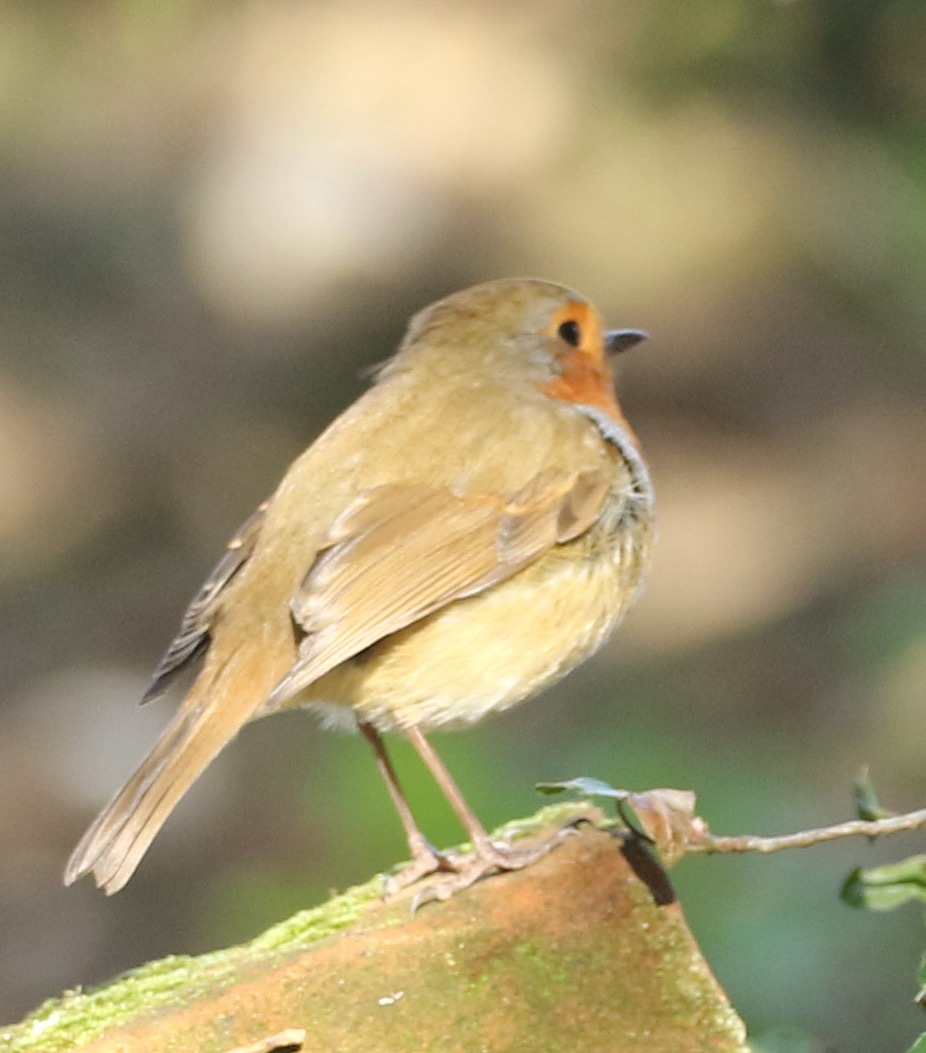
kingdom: Animalia
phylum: Chordata
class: Aves
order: Passeriformes
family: Muscicapidae
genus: Erithacus
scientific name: Erithacus rubecula
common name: European robin
